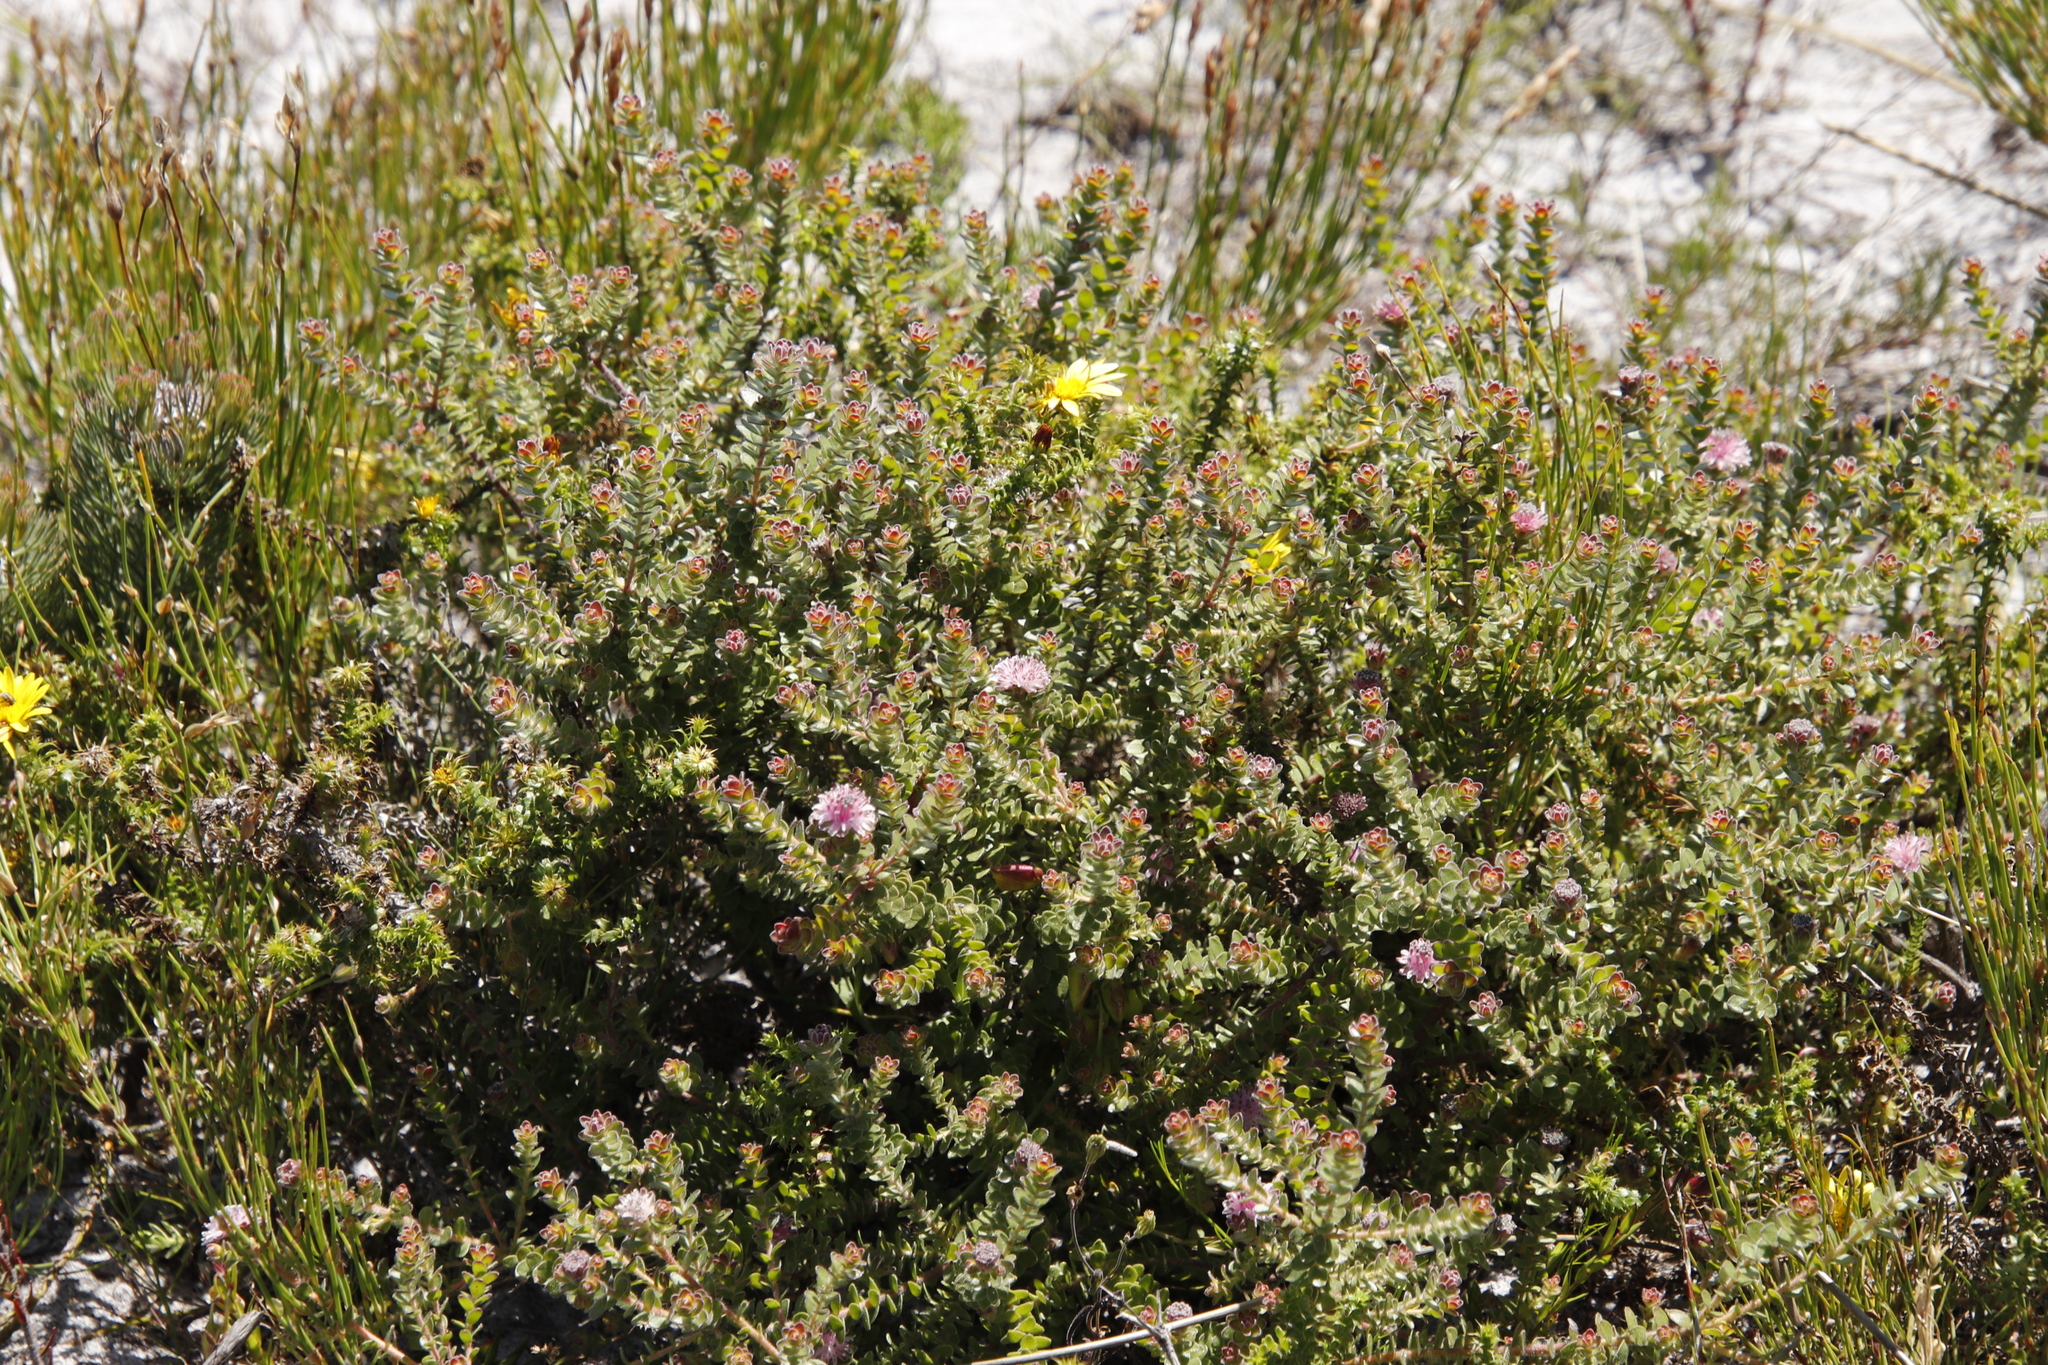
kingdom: Plantae
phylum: Tracheophyta
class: Magnoliopsida
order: Proteales
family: Proteaceae
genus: Diastella
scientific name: Diastella divaricata
